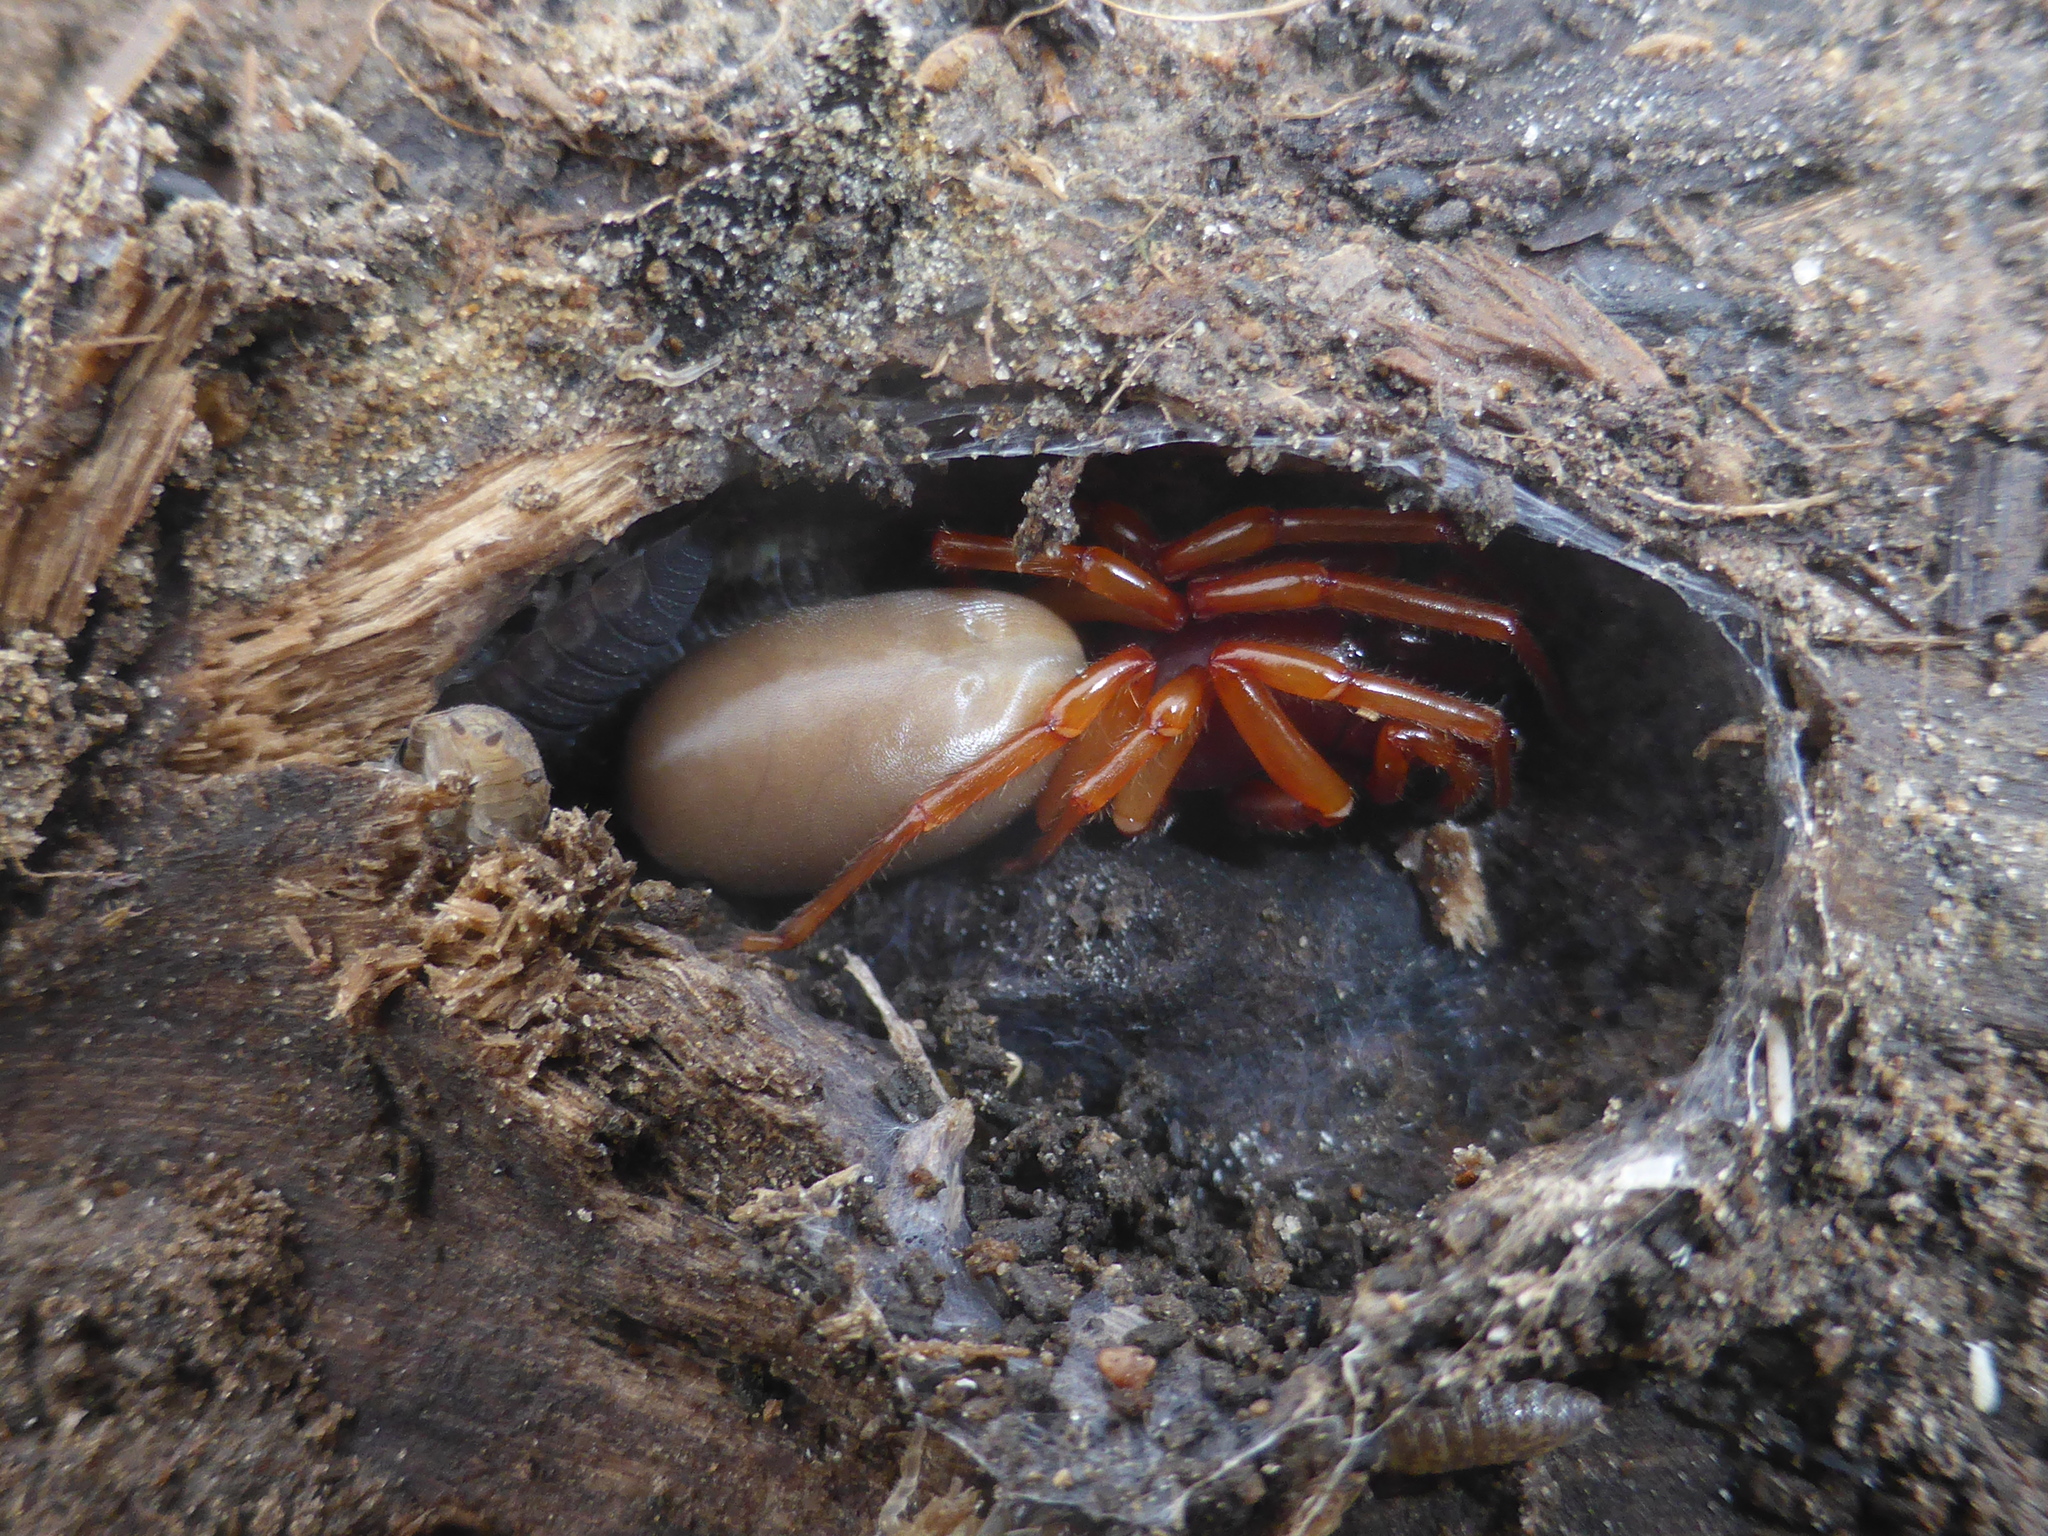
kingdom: Animalia
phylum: Arthropoda
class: Arachnida
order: Araneae
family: Dysderidae
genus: Dysdera
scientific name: Dysdera crocata
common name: Woodlouse spider
